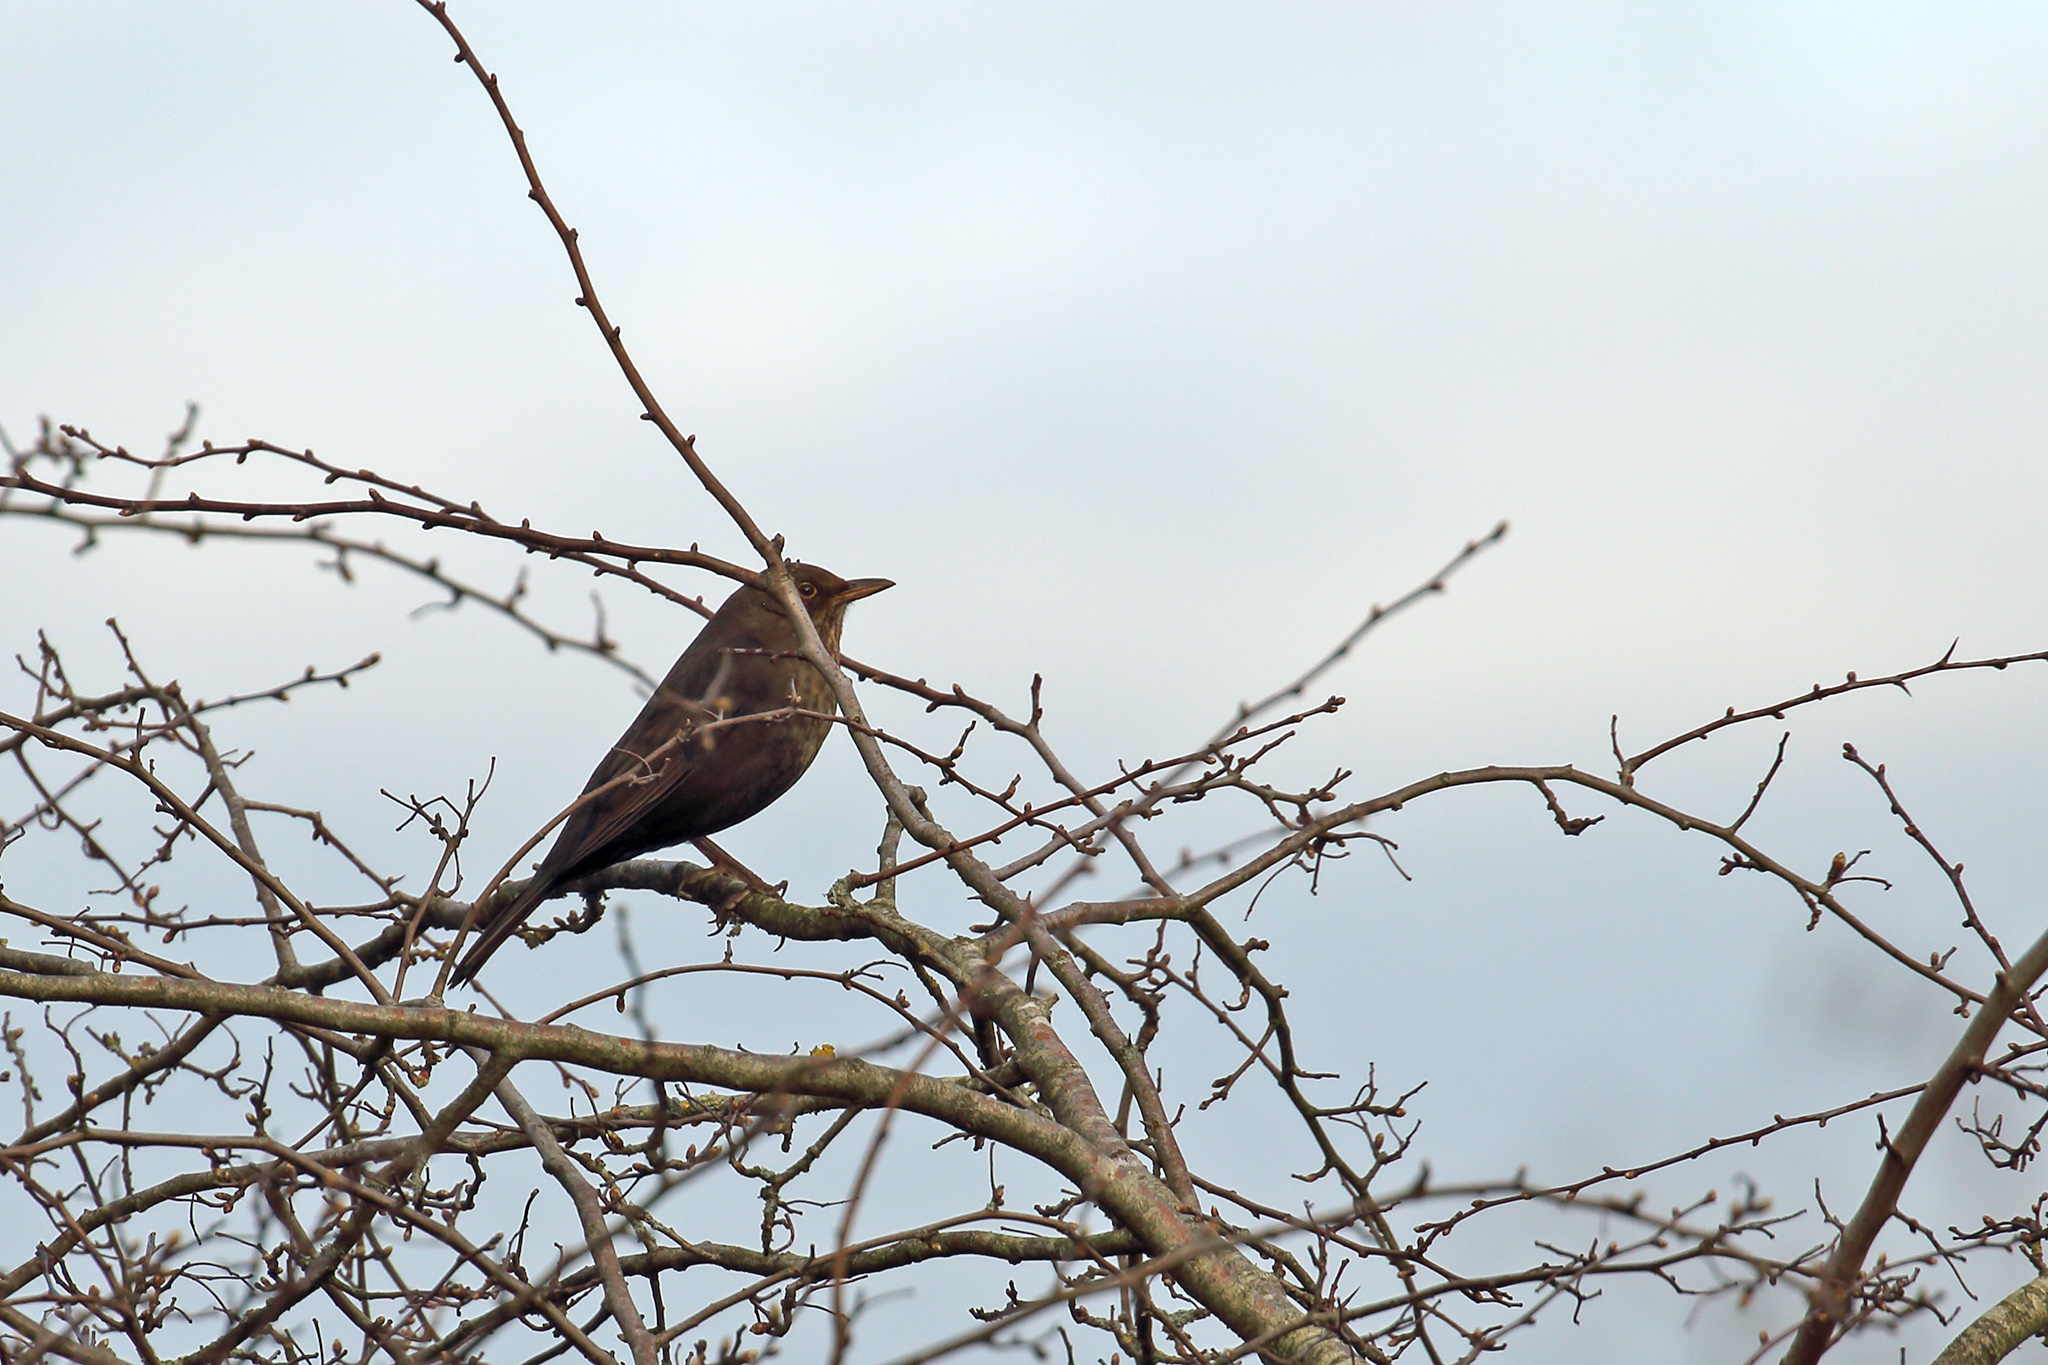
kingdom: Animalia
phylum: Chordata
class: Aves
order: Passeriformes
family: Turdidae
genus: Turdus
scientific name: Turdus merula
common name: Common blackbird
